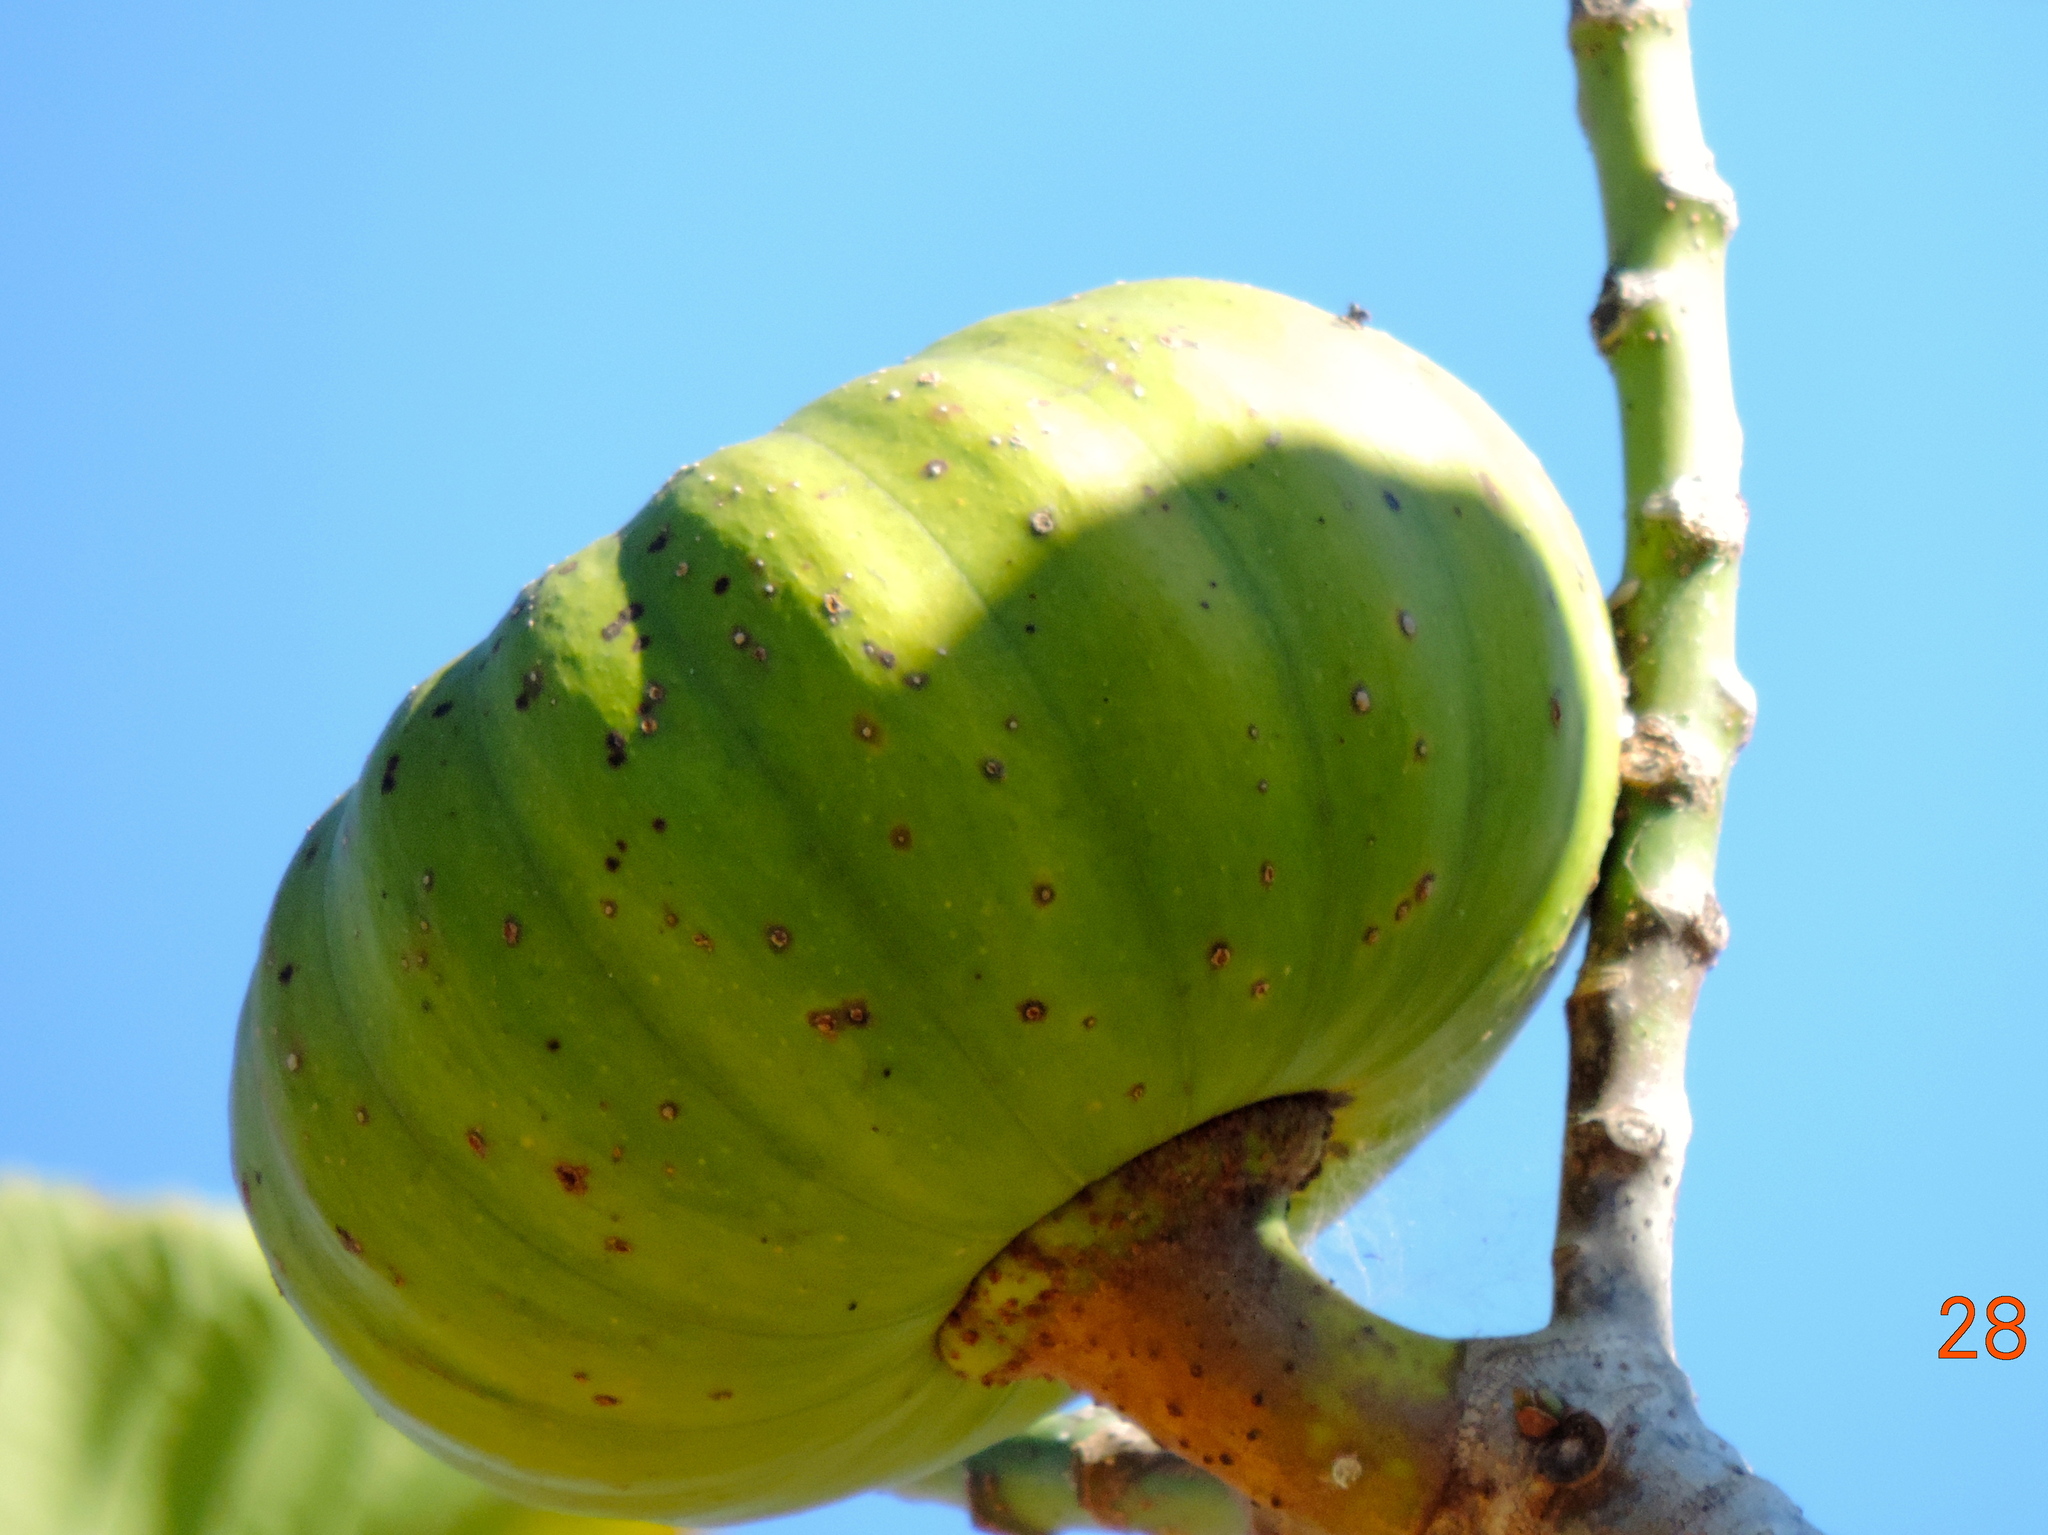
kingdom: Plantae
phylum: Tracheophyta
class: Magnoliopsida
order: Malpighiales
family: Euphorbiaceae
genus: Hura
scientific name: Hura polyandra
